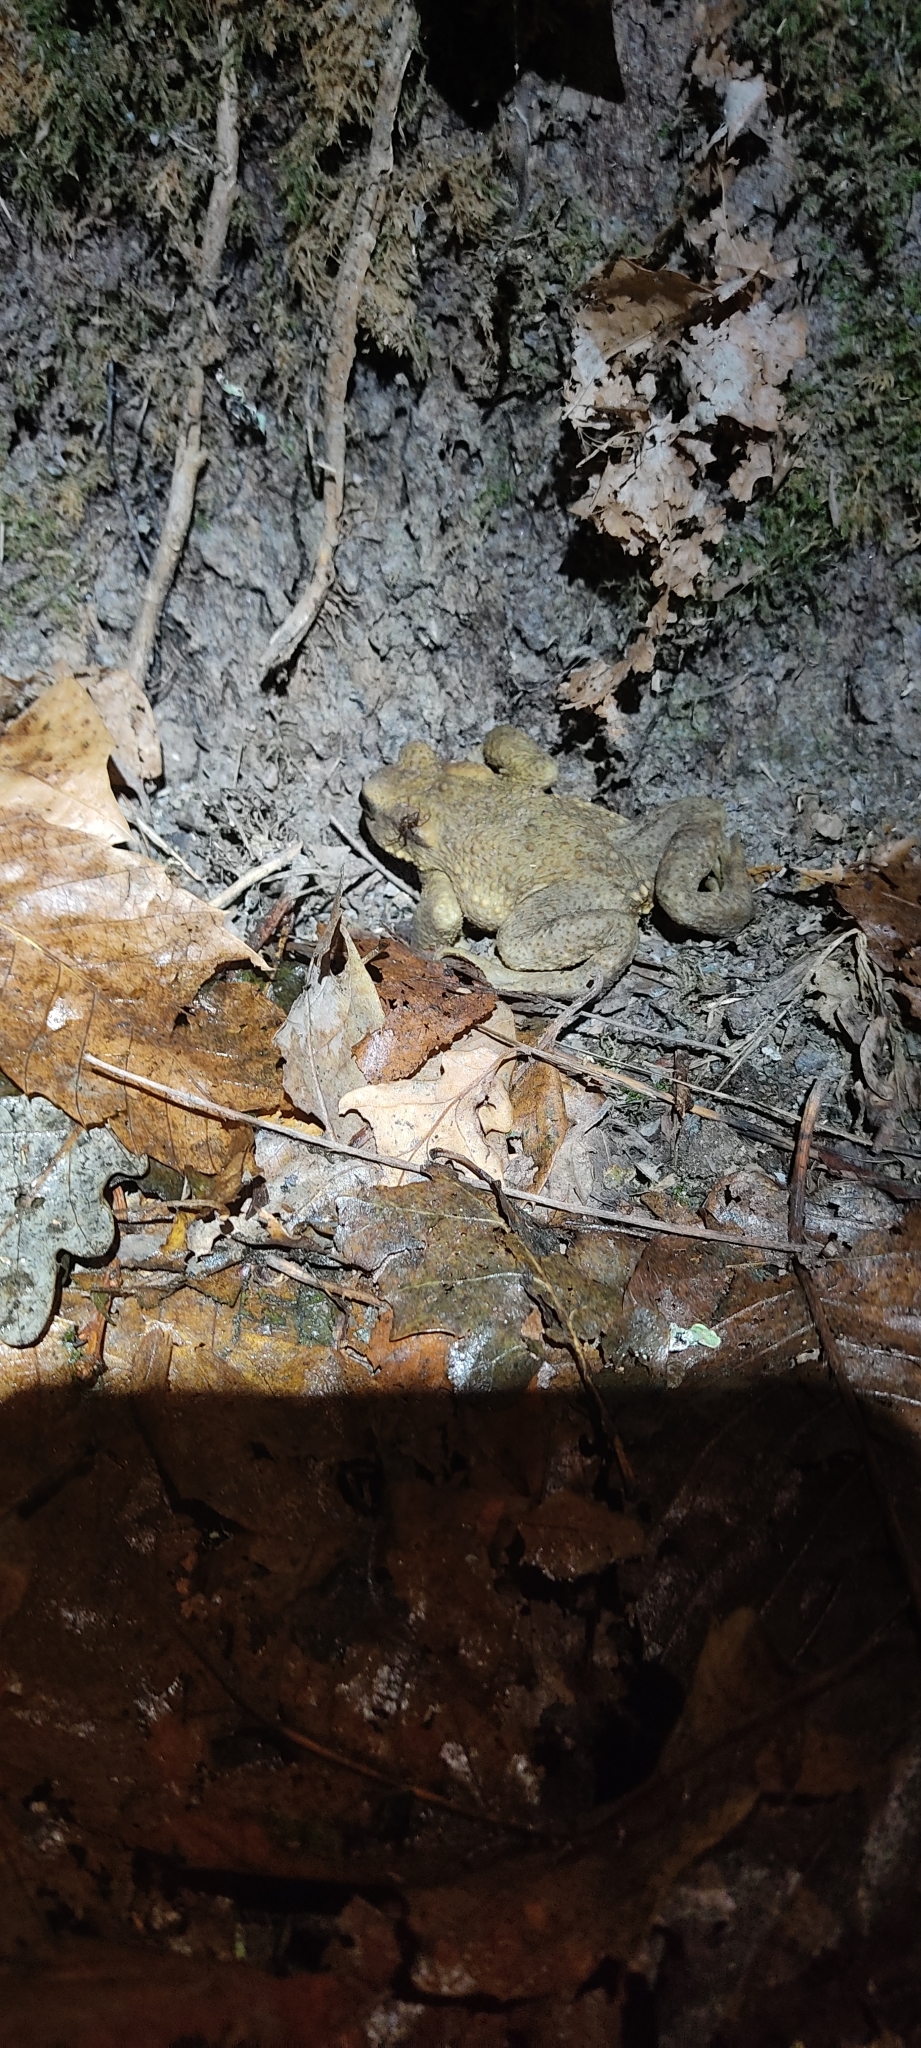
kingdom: Animalia
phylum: Chordata
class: Amphibia
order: Anura
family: Bufonidae
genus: Bufo
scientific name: Bufo spinosus
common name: Western common toad
